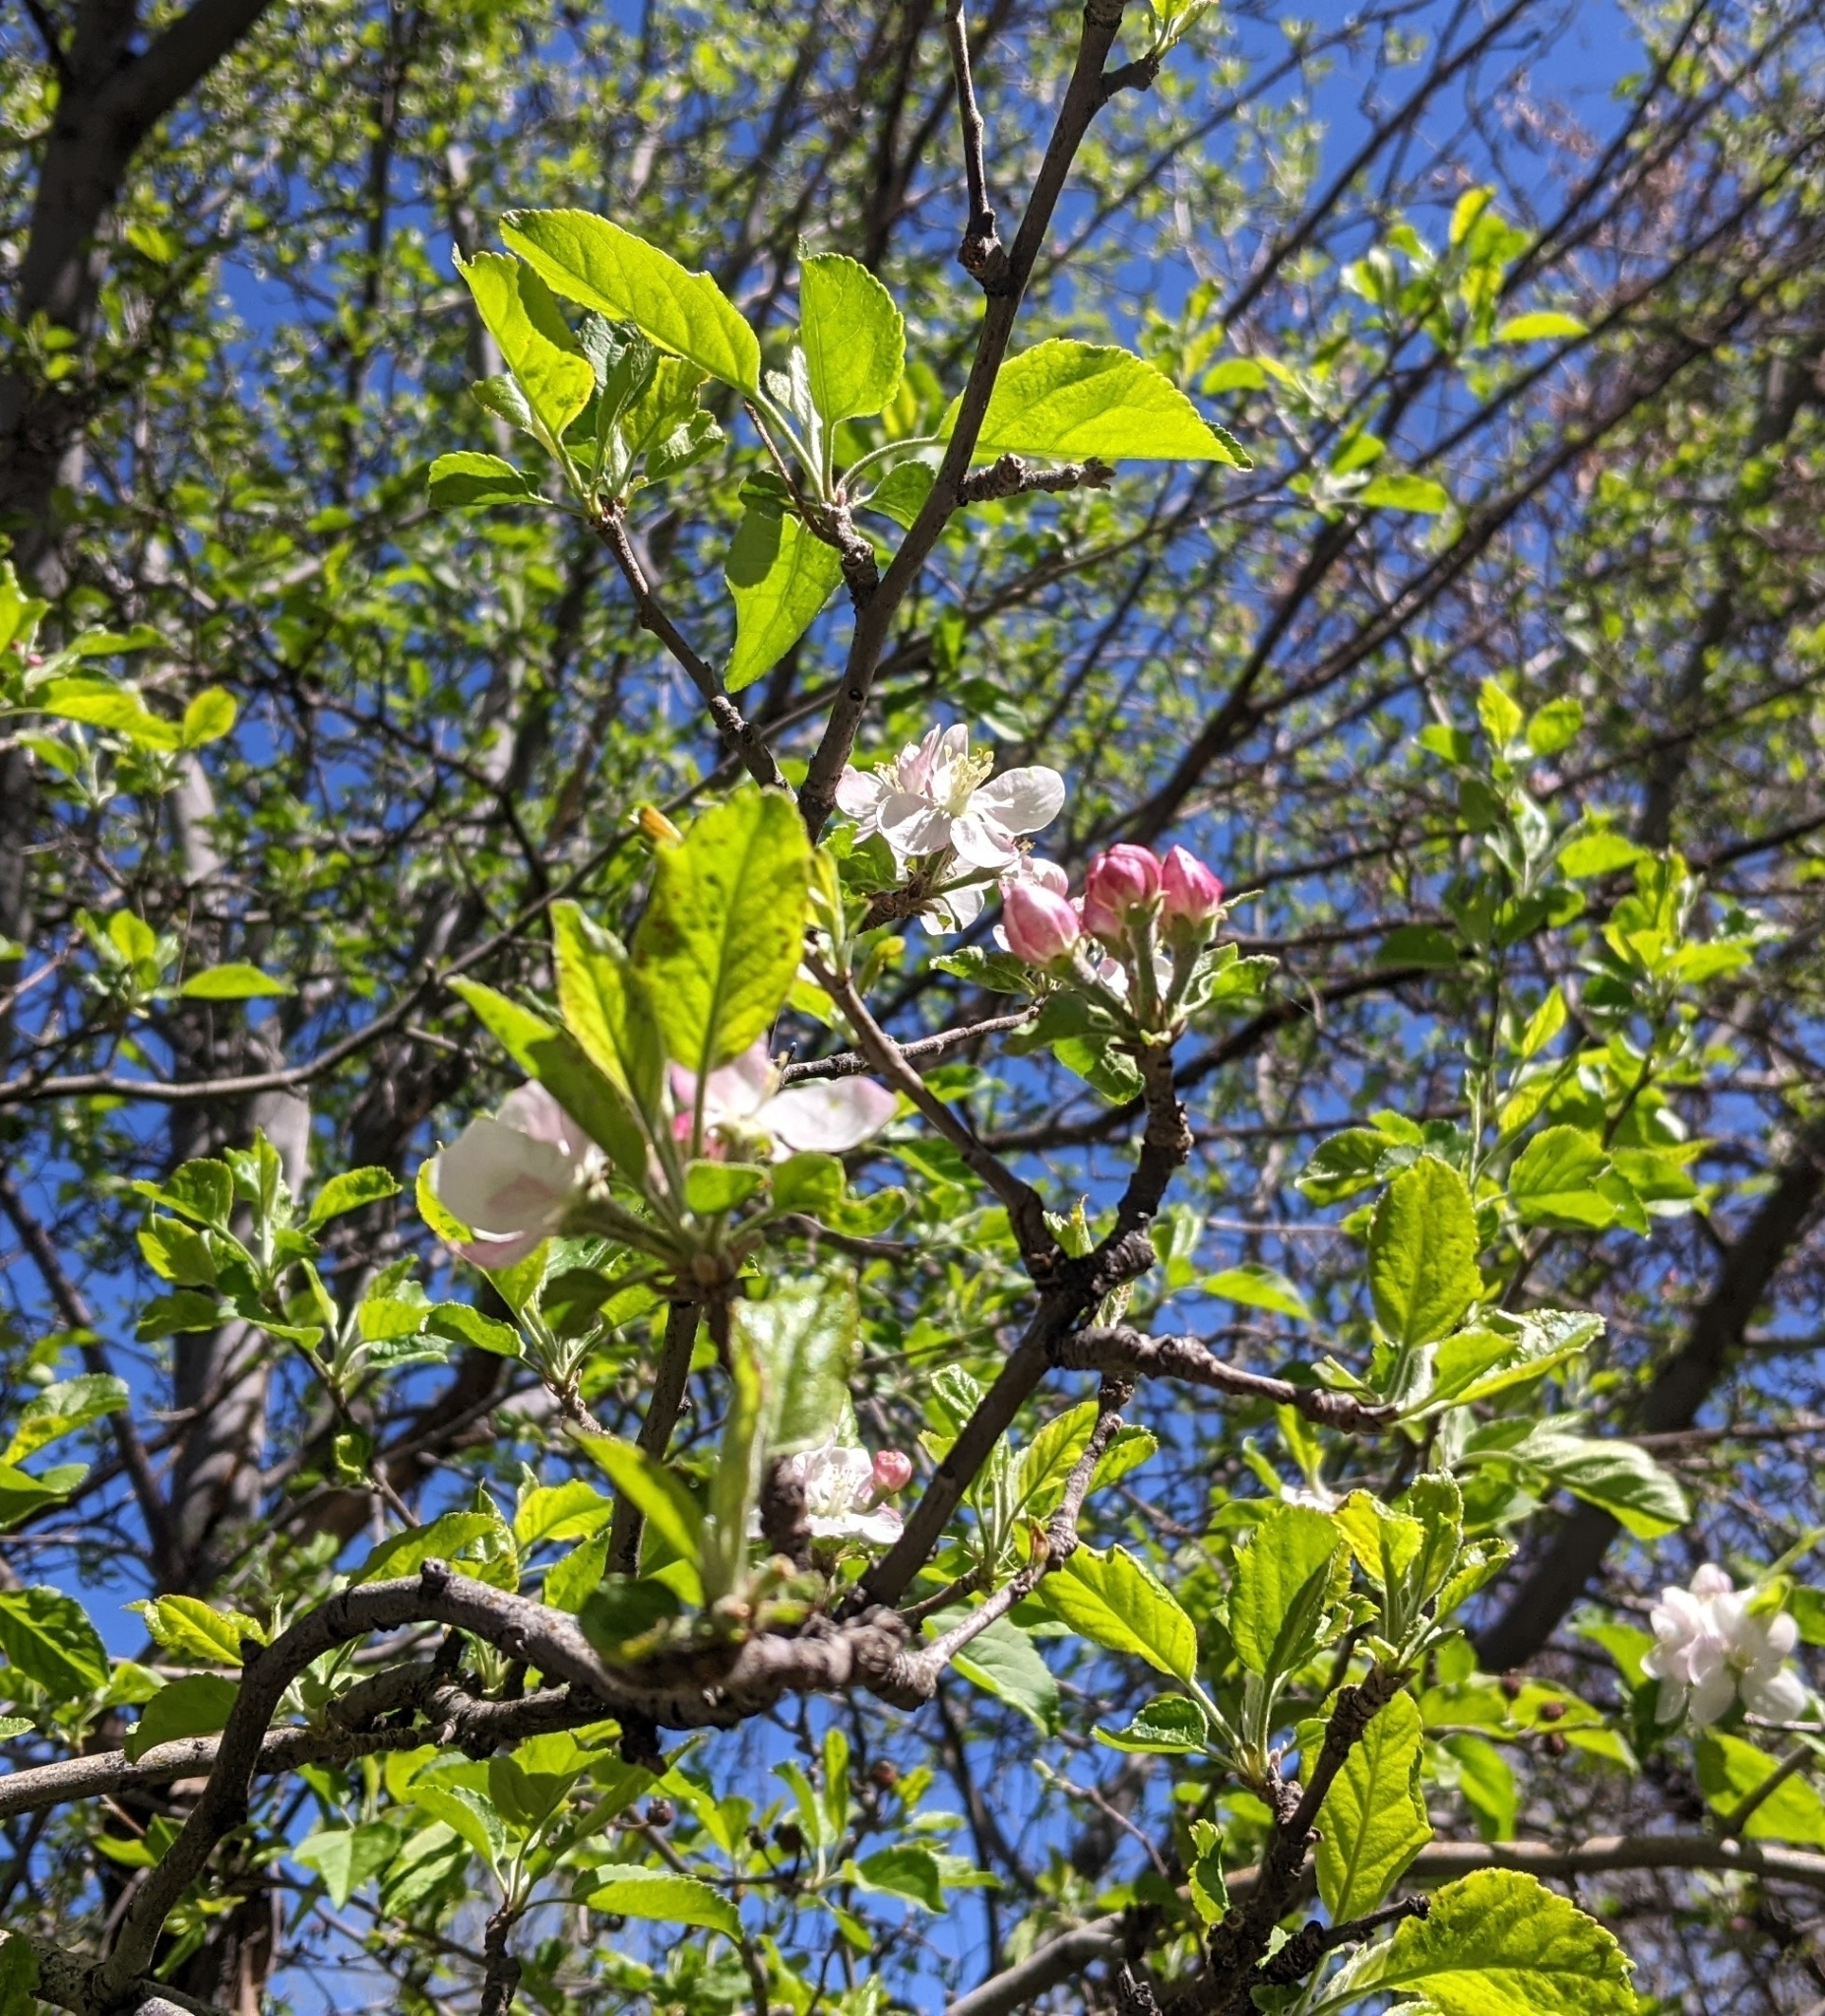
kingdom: Plantae
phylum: Tracheophyta
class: Magnoliopsida
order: Rosales
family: Rosaceae
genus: Malus
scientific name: Malus domestica
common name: Apple
